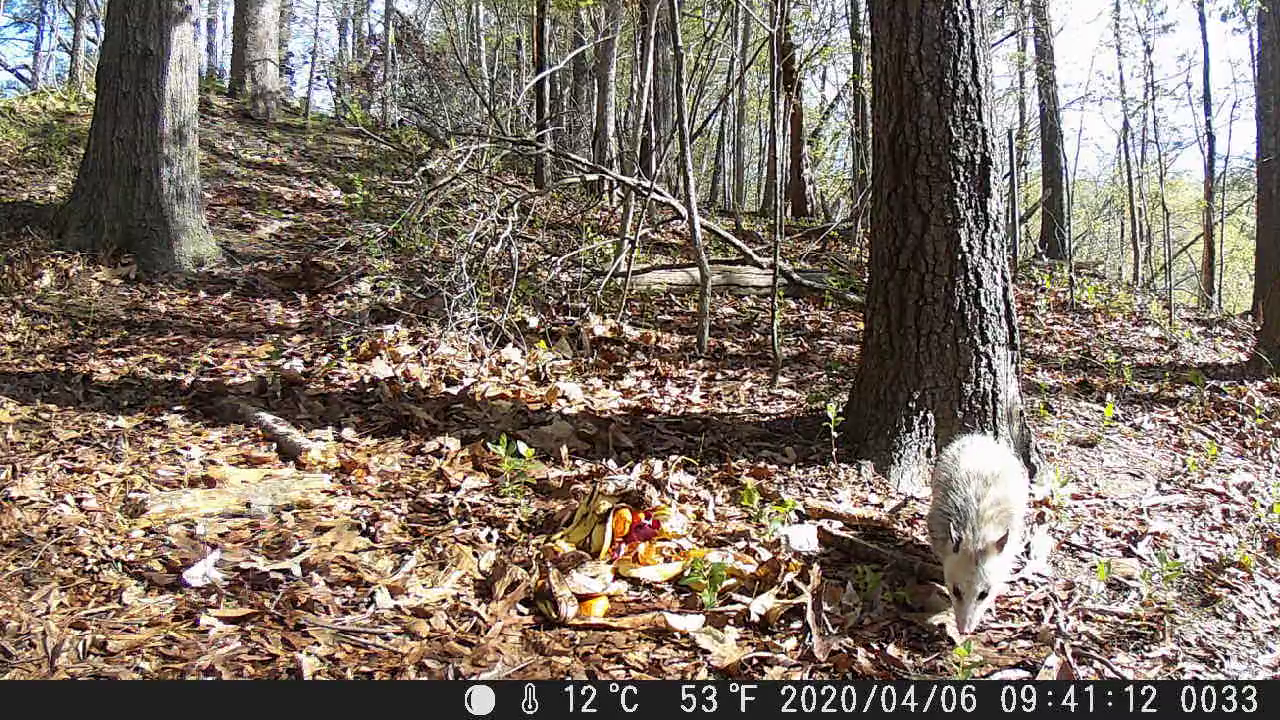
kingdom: Animalia
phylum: Chordata
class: Mammalia
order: Didelphimorphia
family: Didelphidae
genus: Didelphis
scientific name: Didelphis virginiana
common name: Virginia opossum
